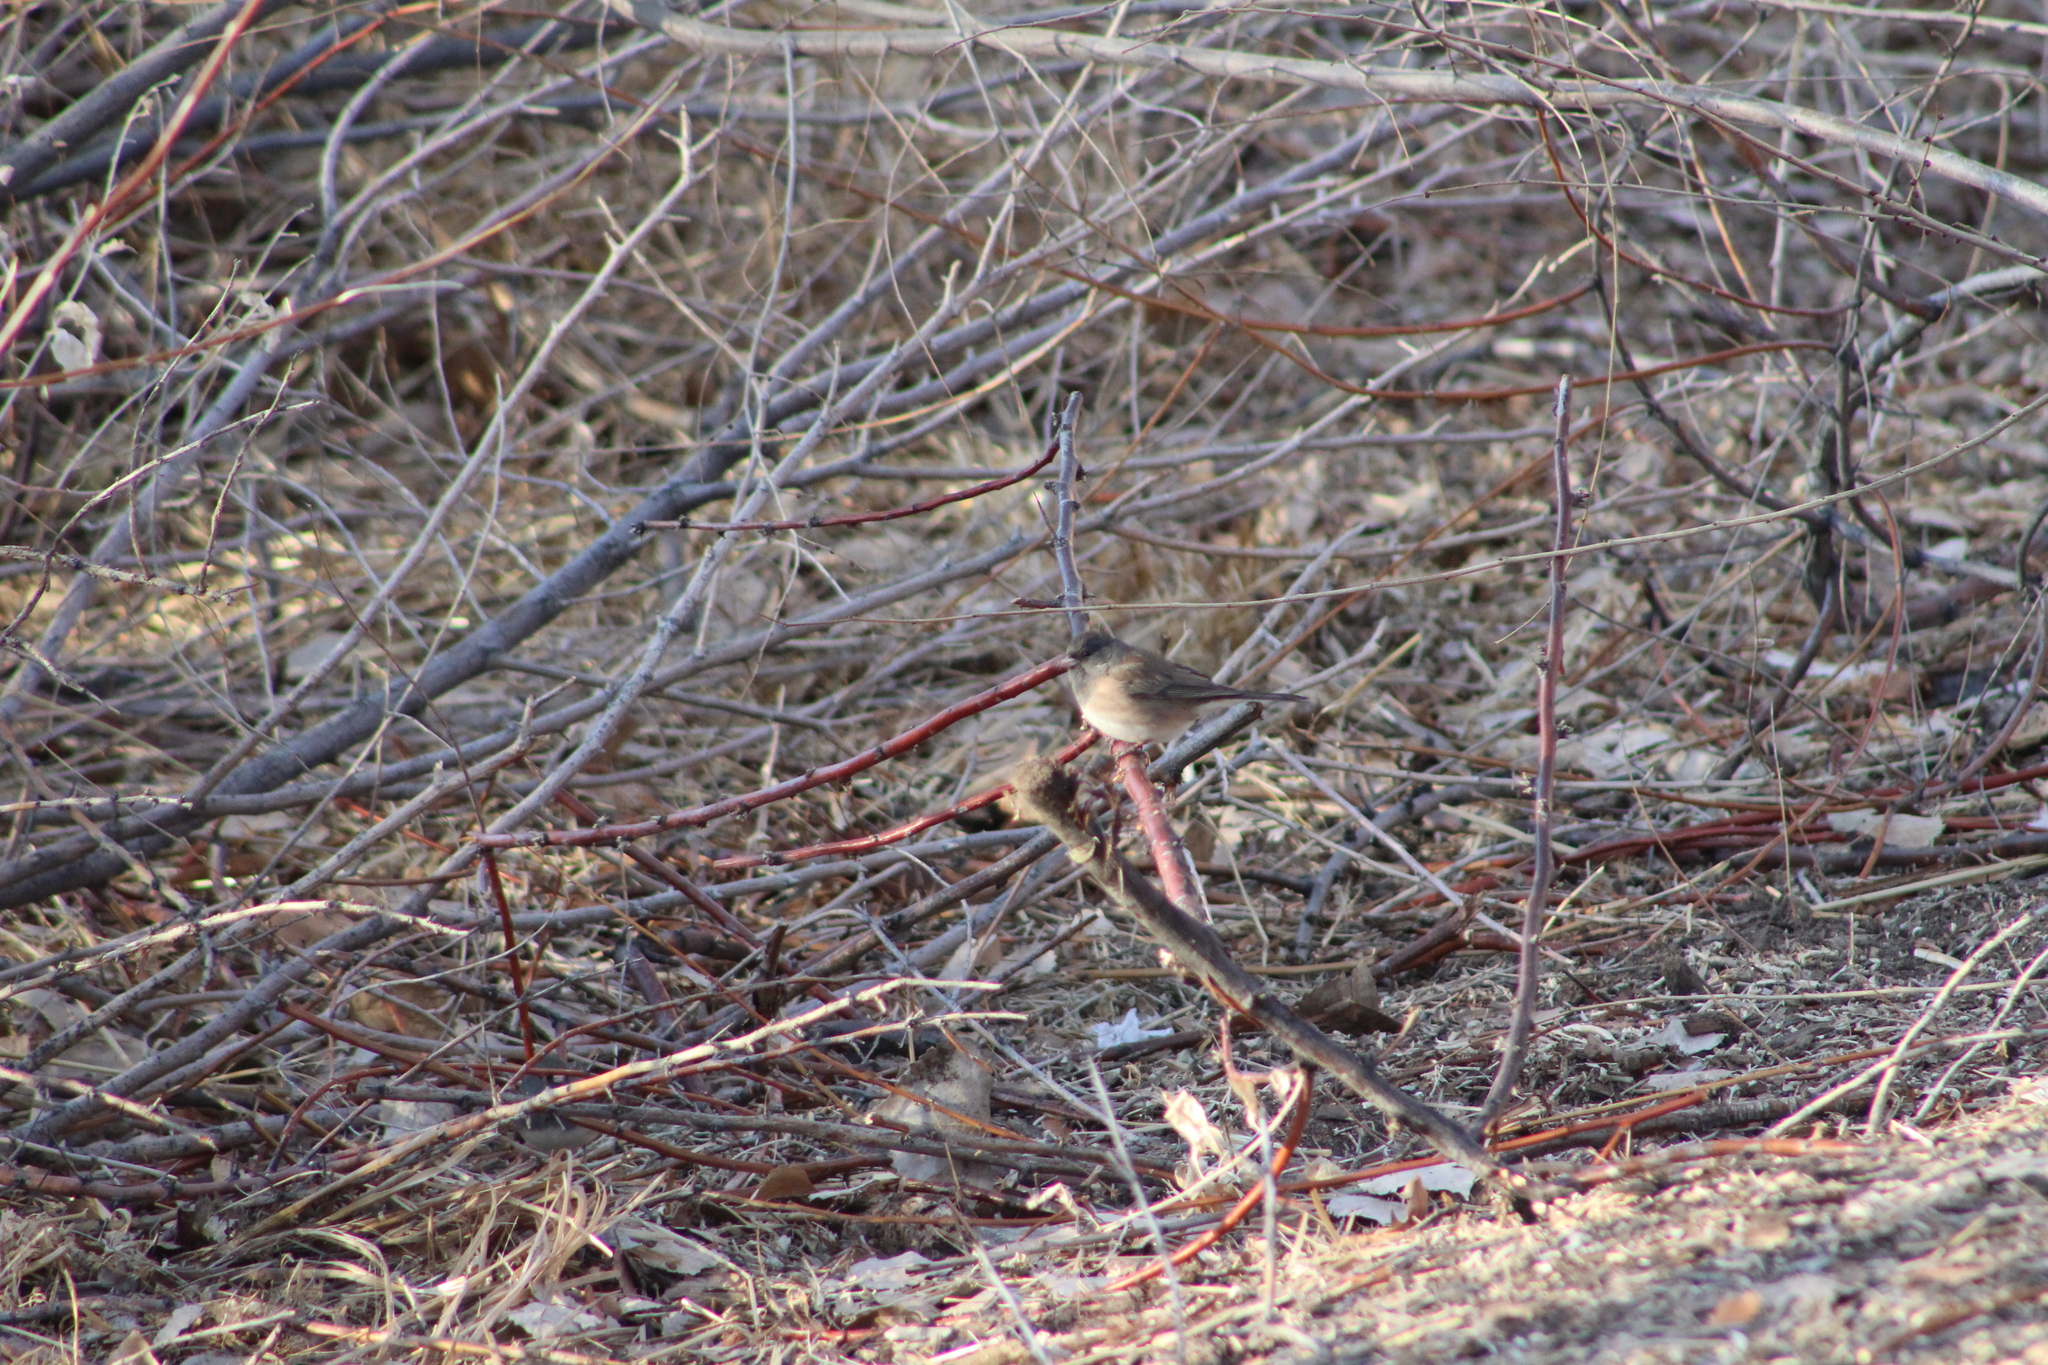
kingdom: Animalia
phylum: Chordata
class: Aves
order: Passeriformes
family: Passerellidae
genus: Junco
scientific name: Junco hyemalis
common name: Dark-eyed junco
